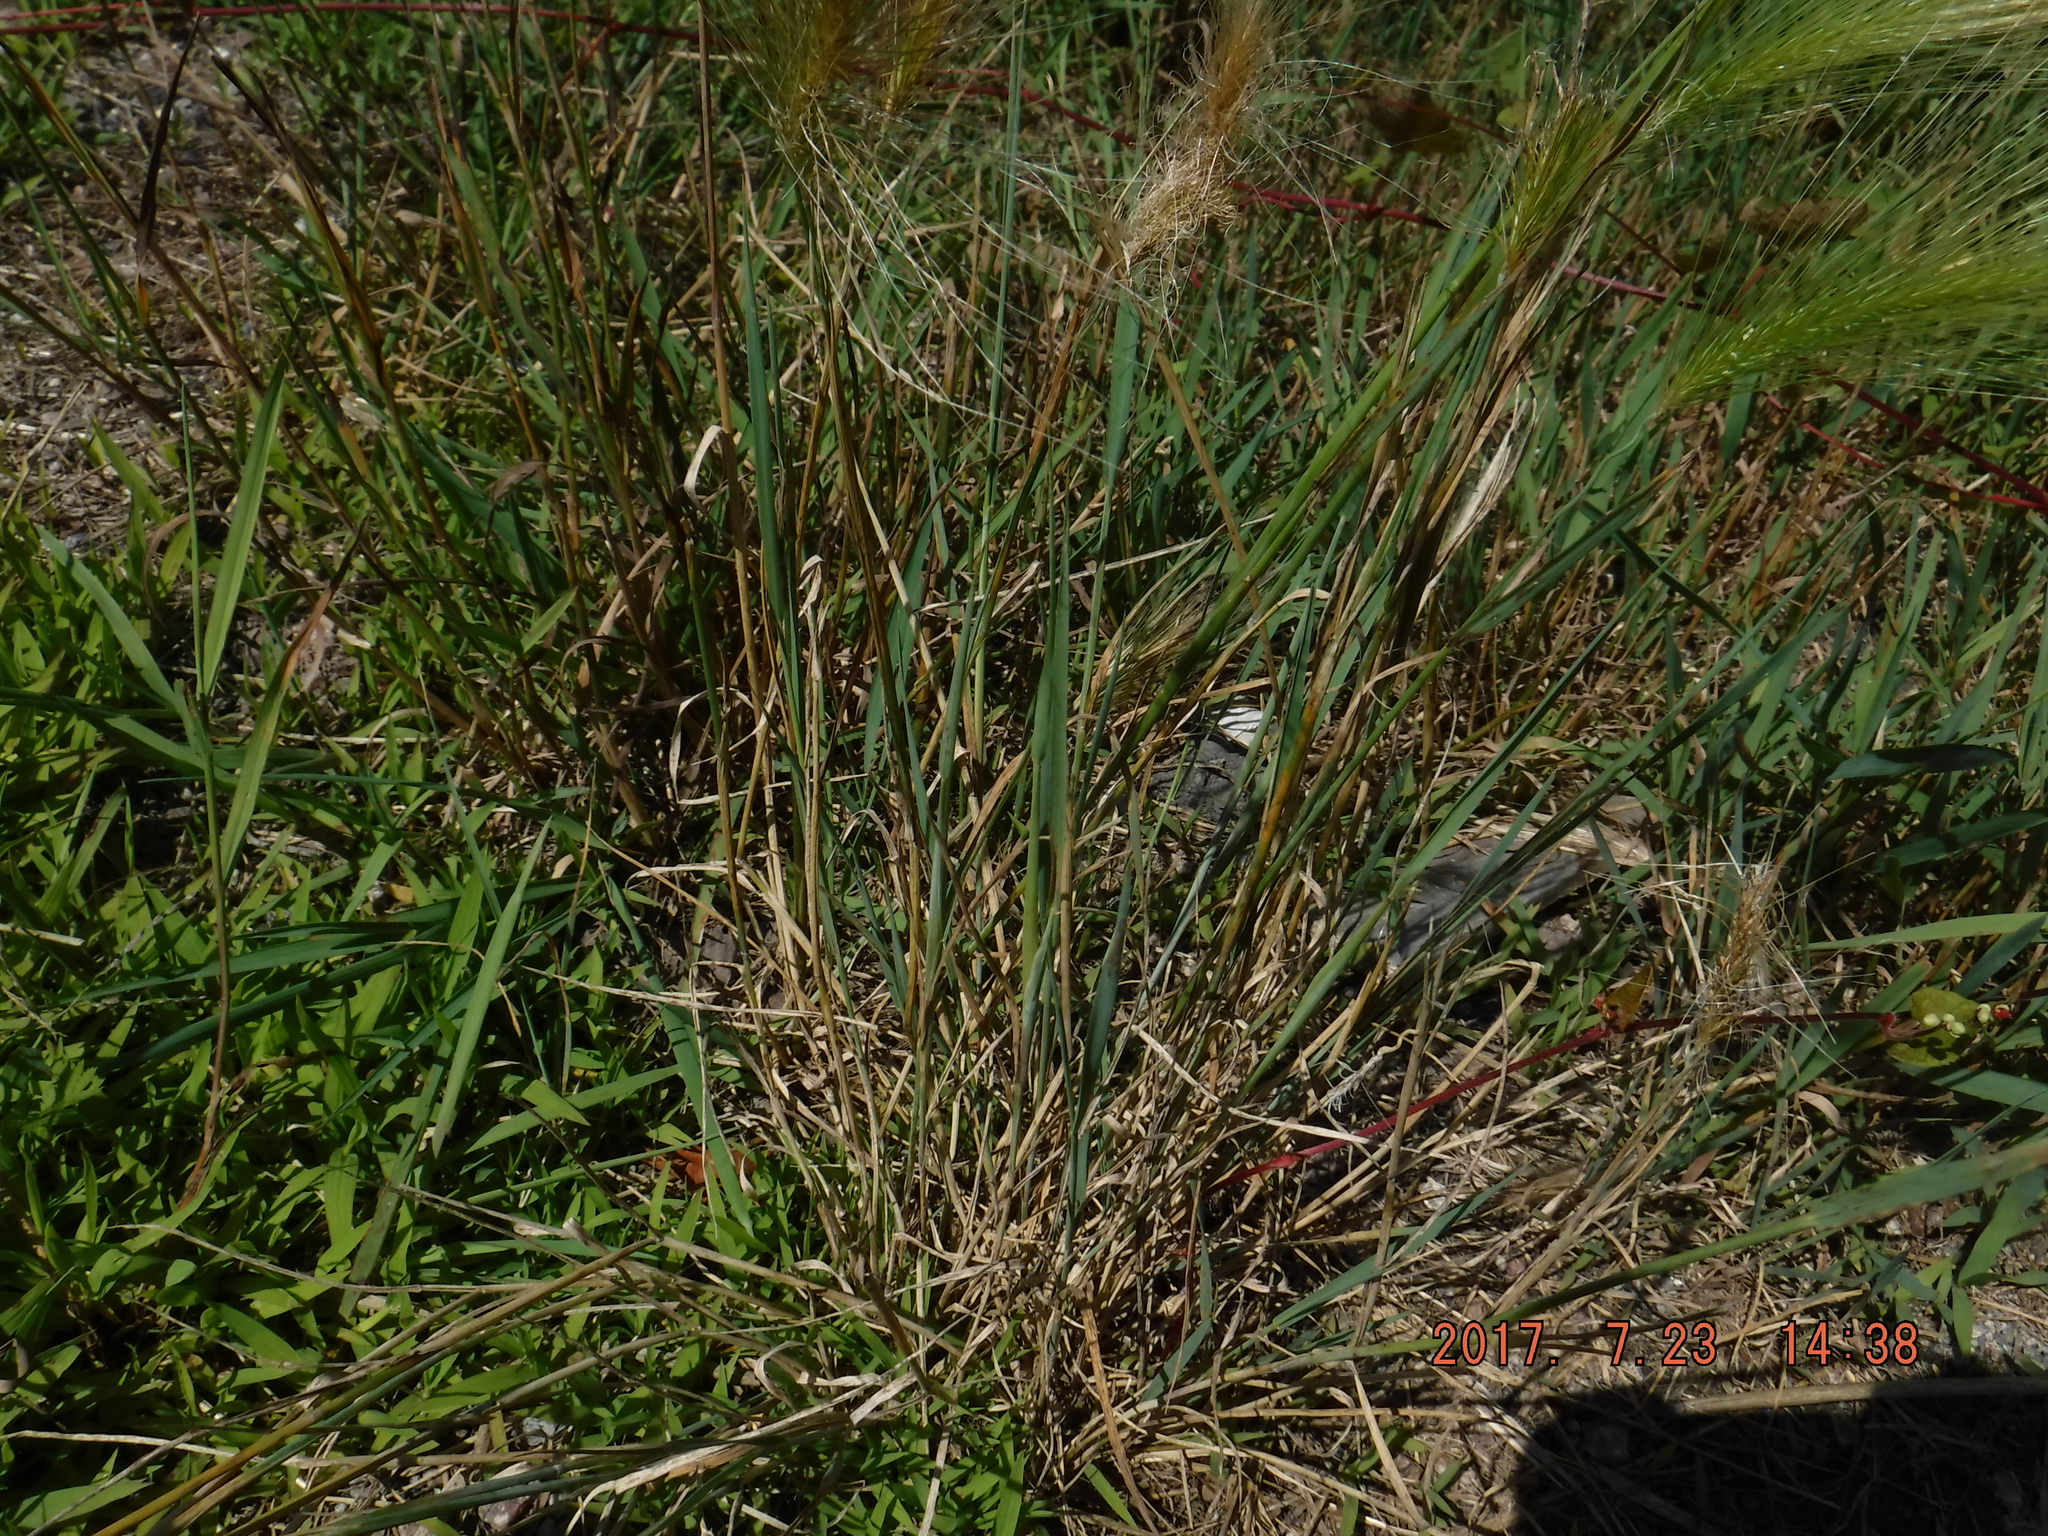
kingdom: Plantae
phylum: Tracheophyta
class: Liliopsida
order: Poales
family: Poaceae
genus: Hordeum
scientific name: Hordeum jubatum
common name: Foxtail barley
